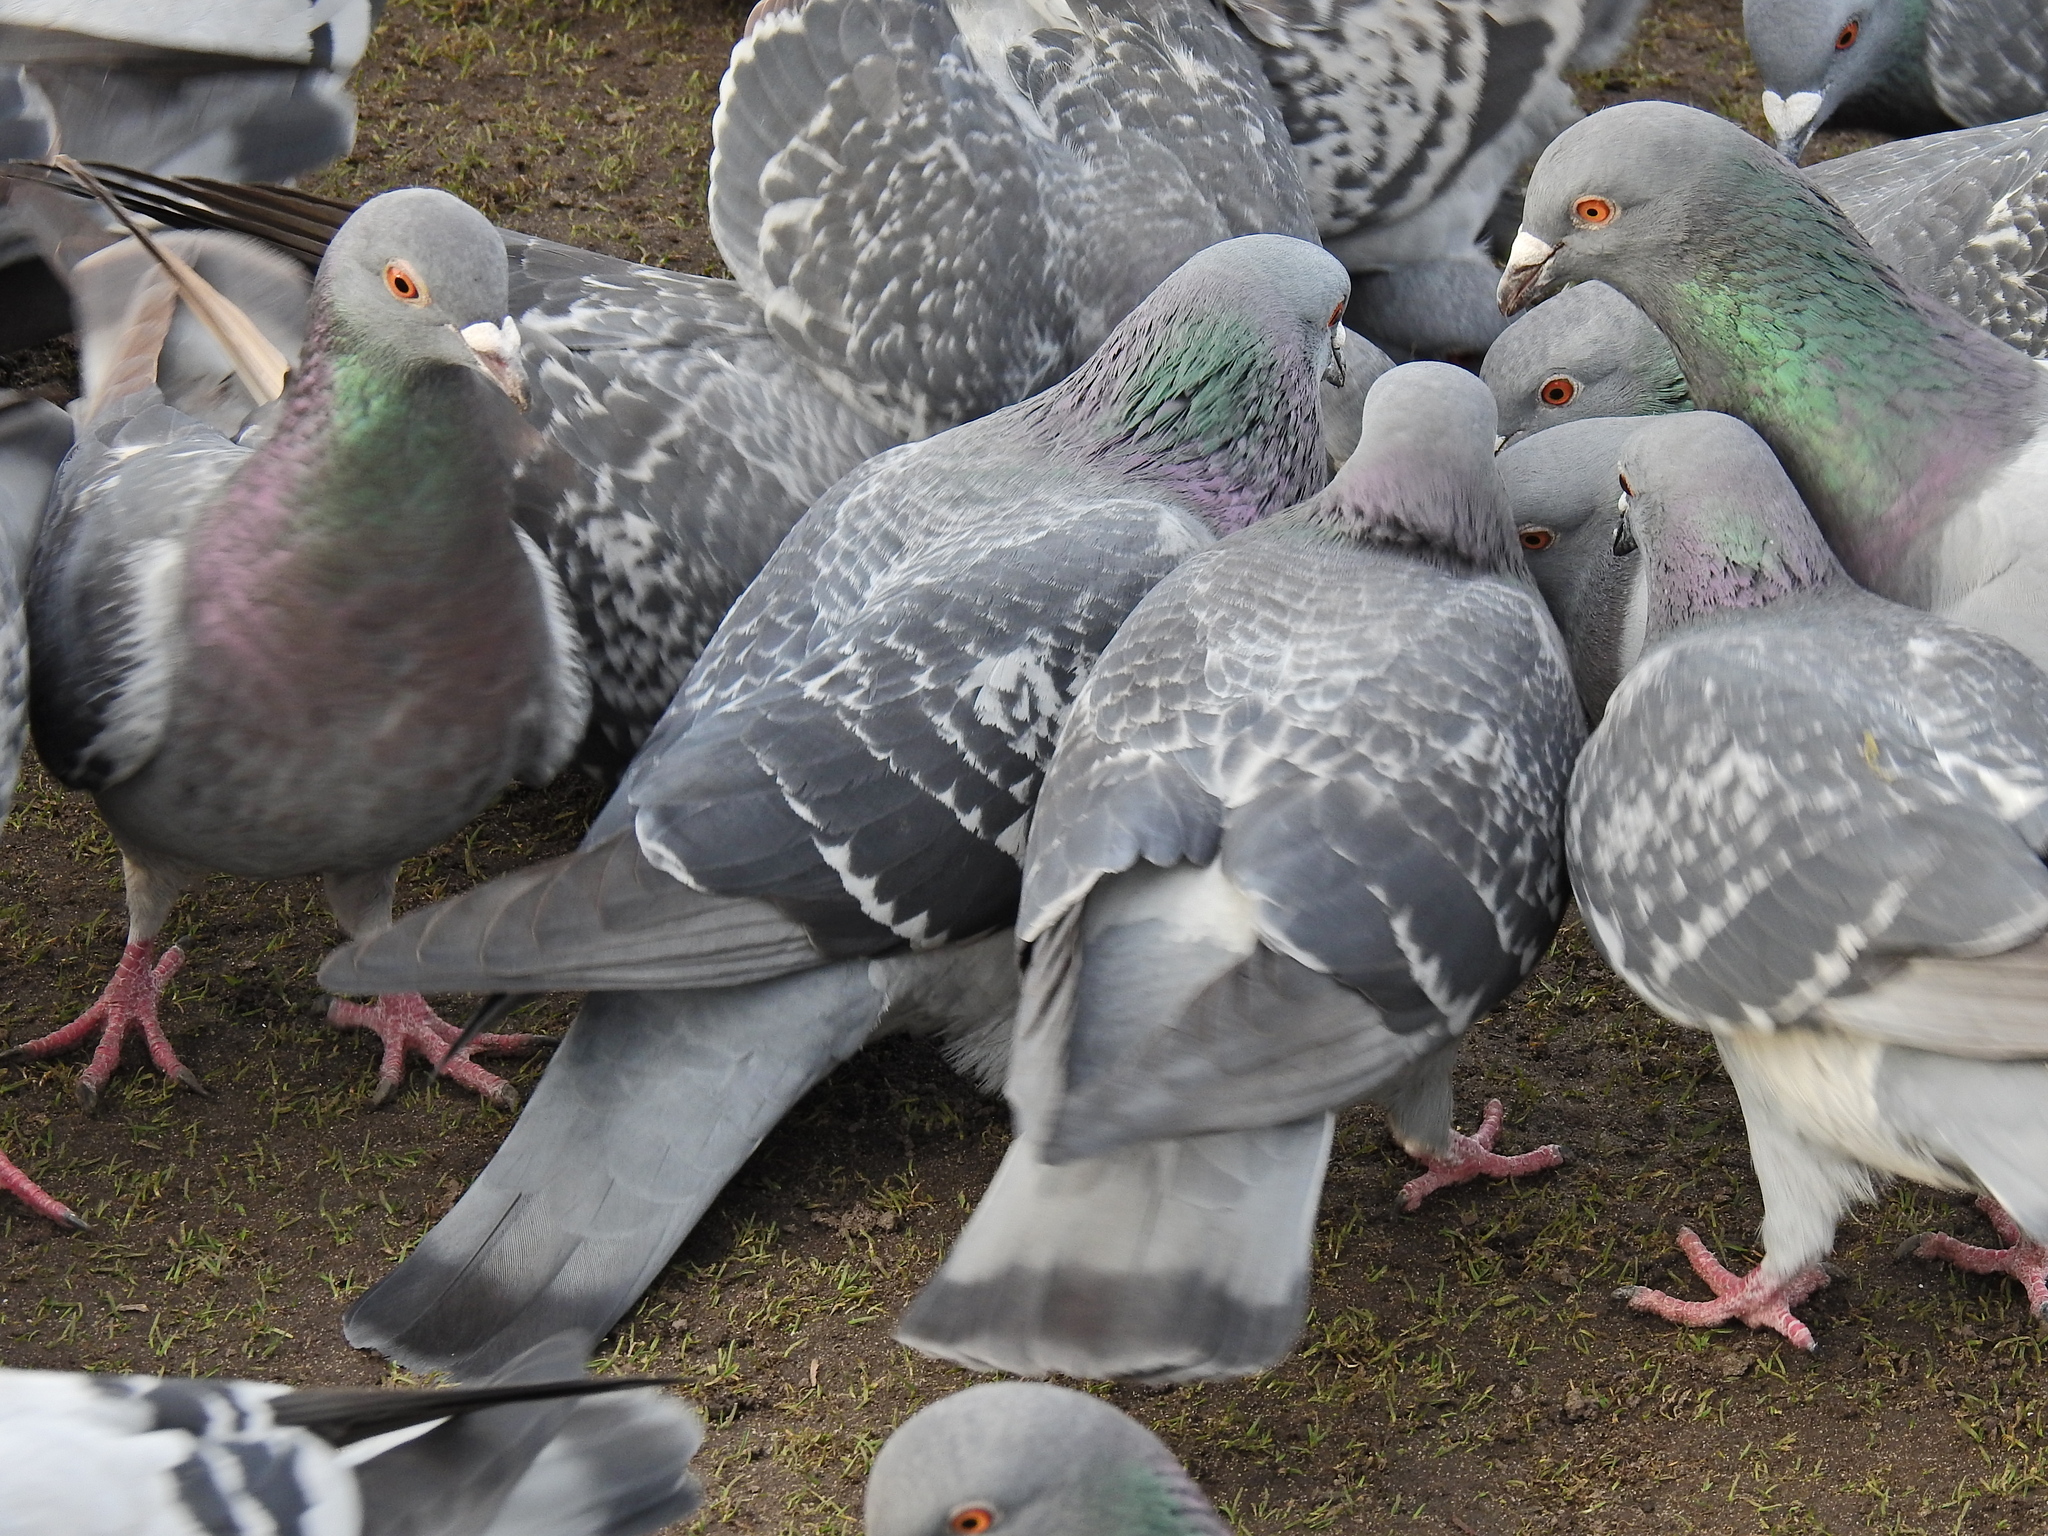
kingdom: Animalia
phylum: Chordata
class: Aves
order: Columbiformes
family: Columbidae
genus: Columba
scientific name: Columba livia
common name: Rock pigeon
